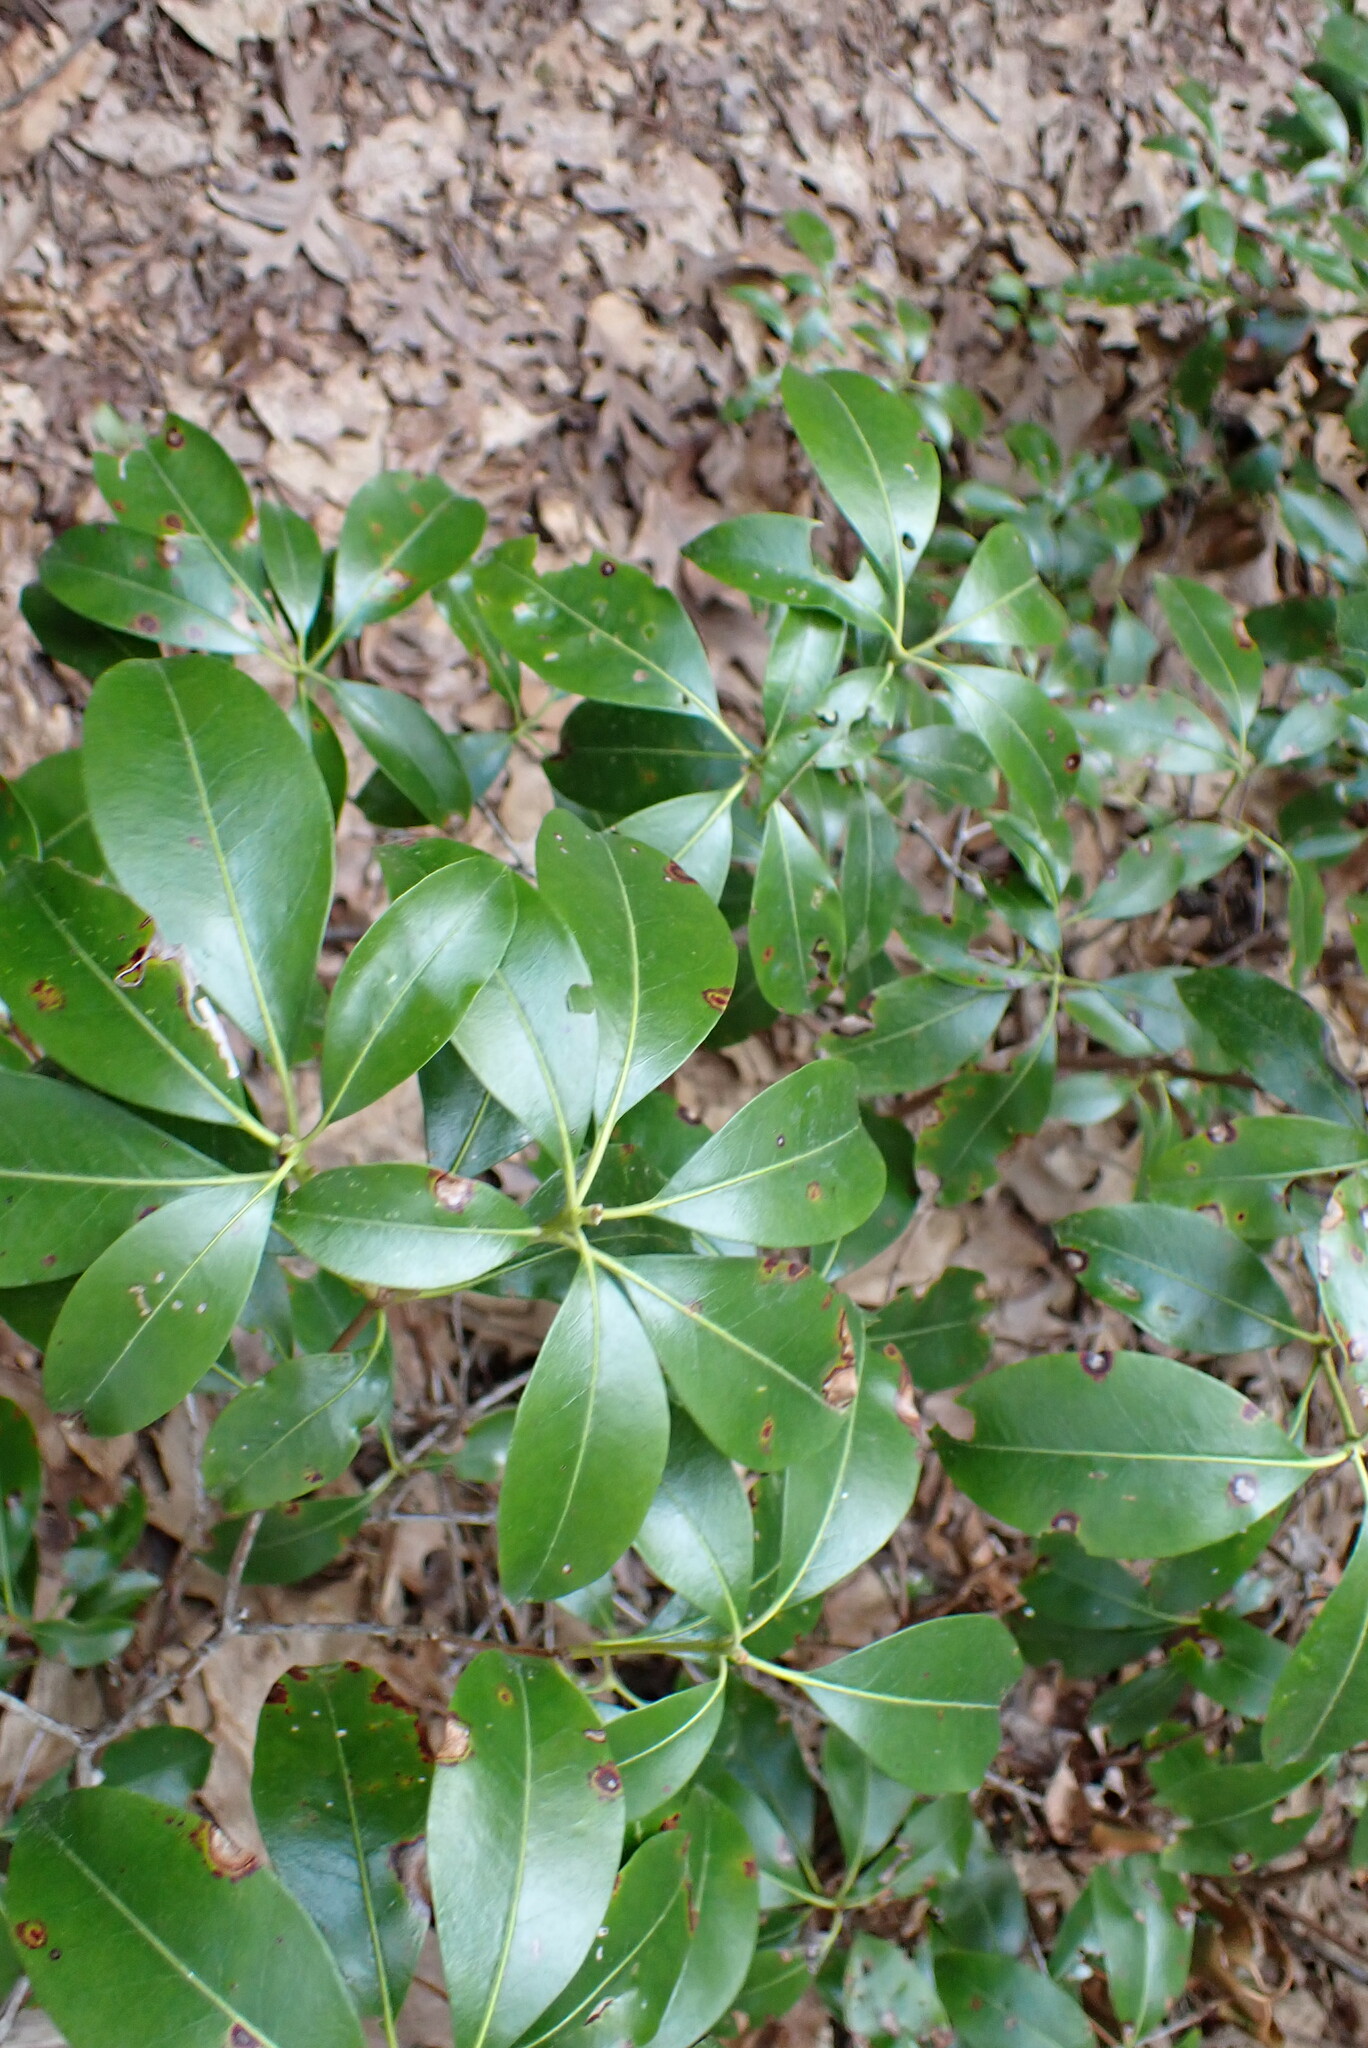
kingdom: Plantae
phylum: Tracheophyta
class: Magnoliopsida
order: Ericales
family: Ericaceae
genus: Kalmia
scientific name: Kalmia latifolia
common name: Mountain-laurel
